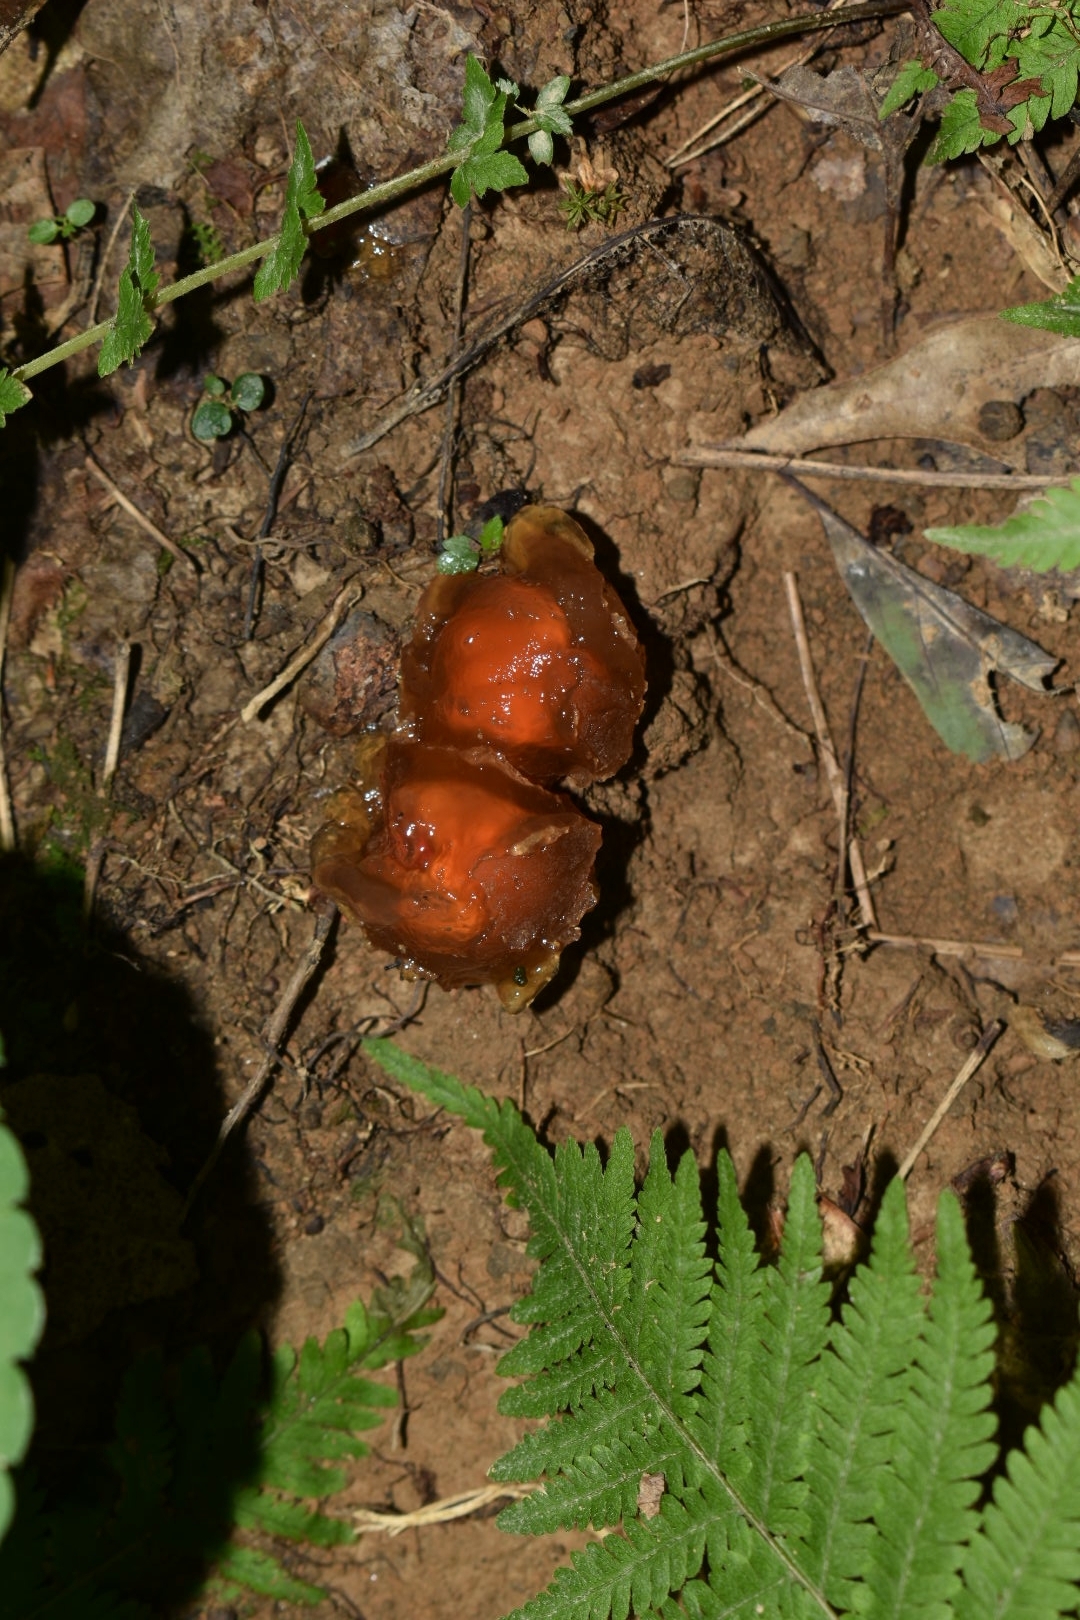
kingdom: Fungi
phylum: Basidiomycota
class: Agaricomycetes
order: Boletales
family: Calostomataceae
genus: Calostoma
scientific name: Calostoma cinnabarinum
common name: Stalked puffball-in-aspic
